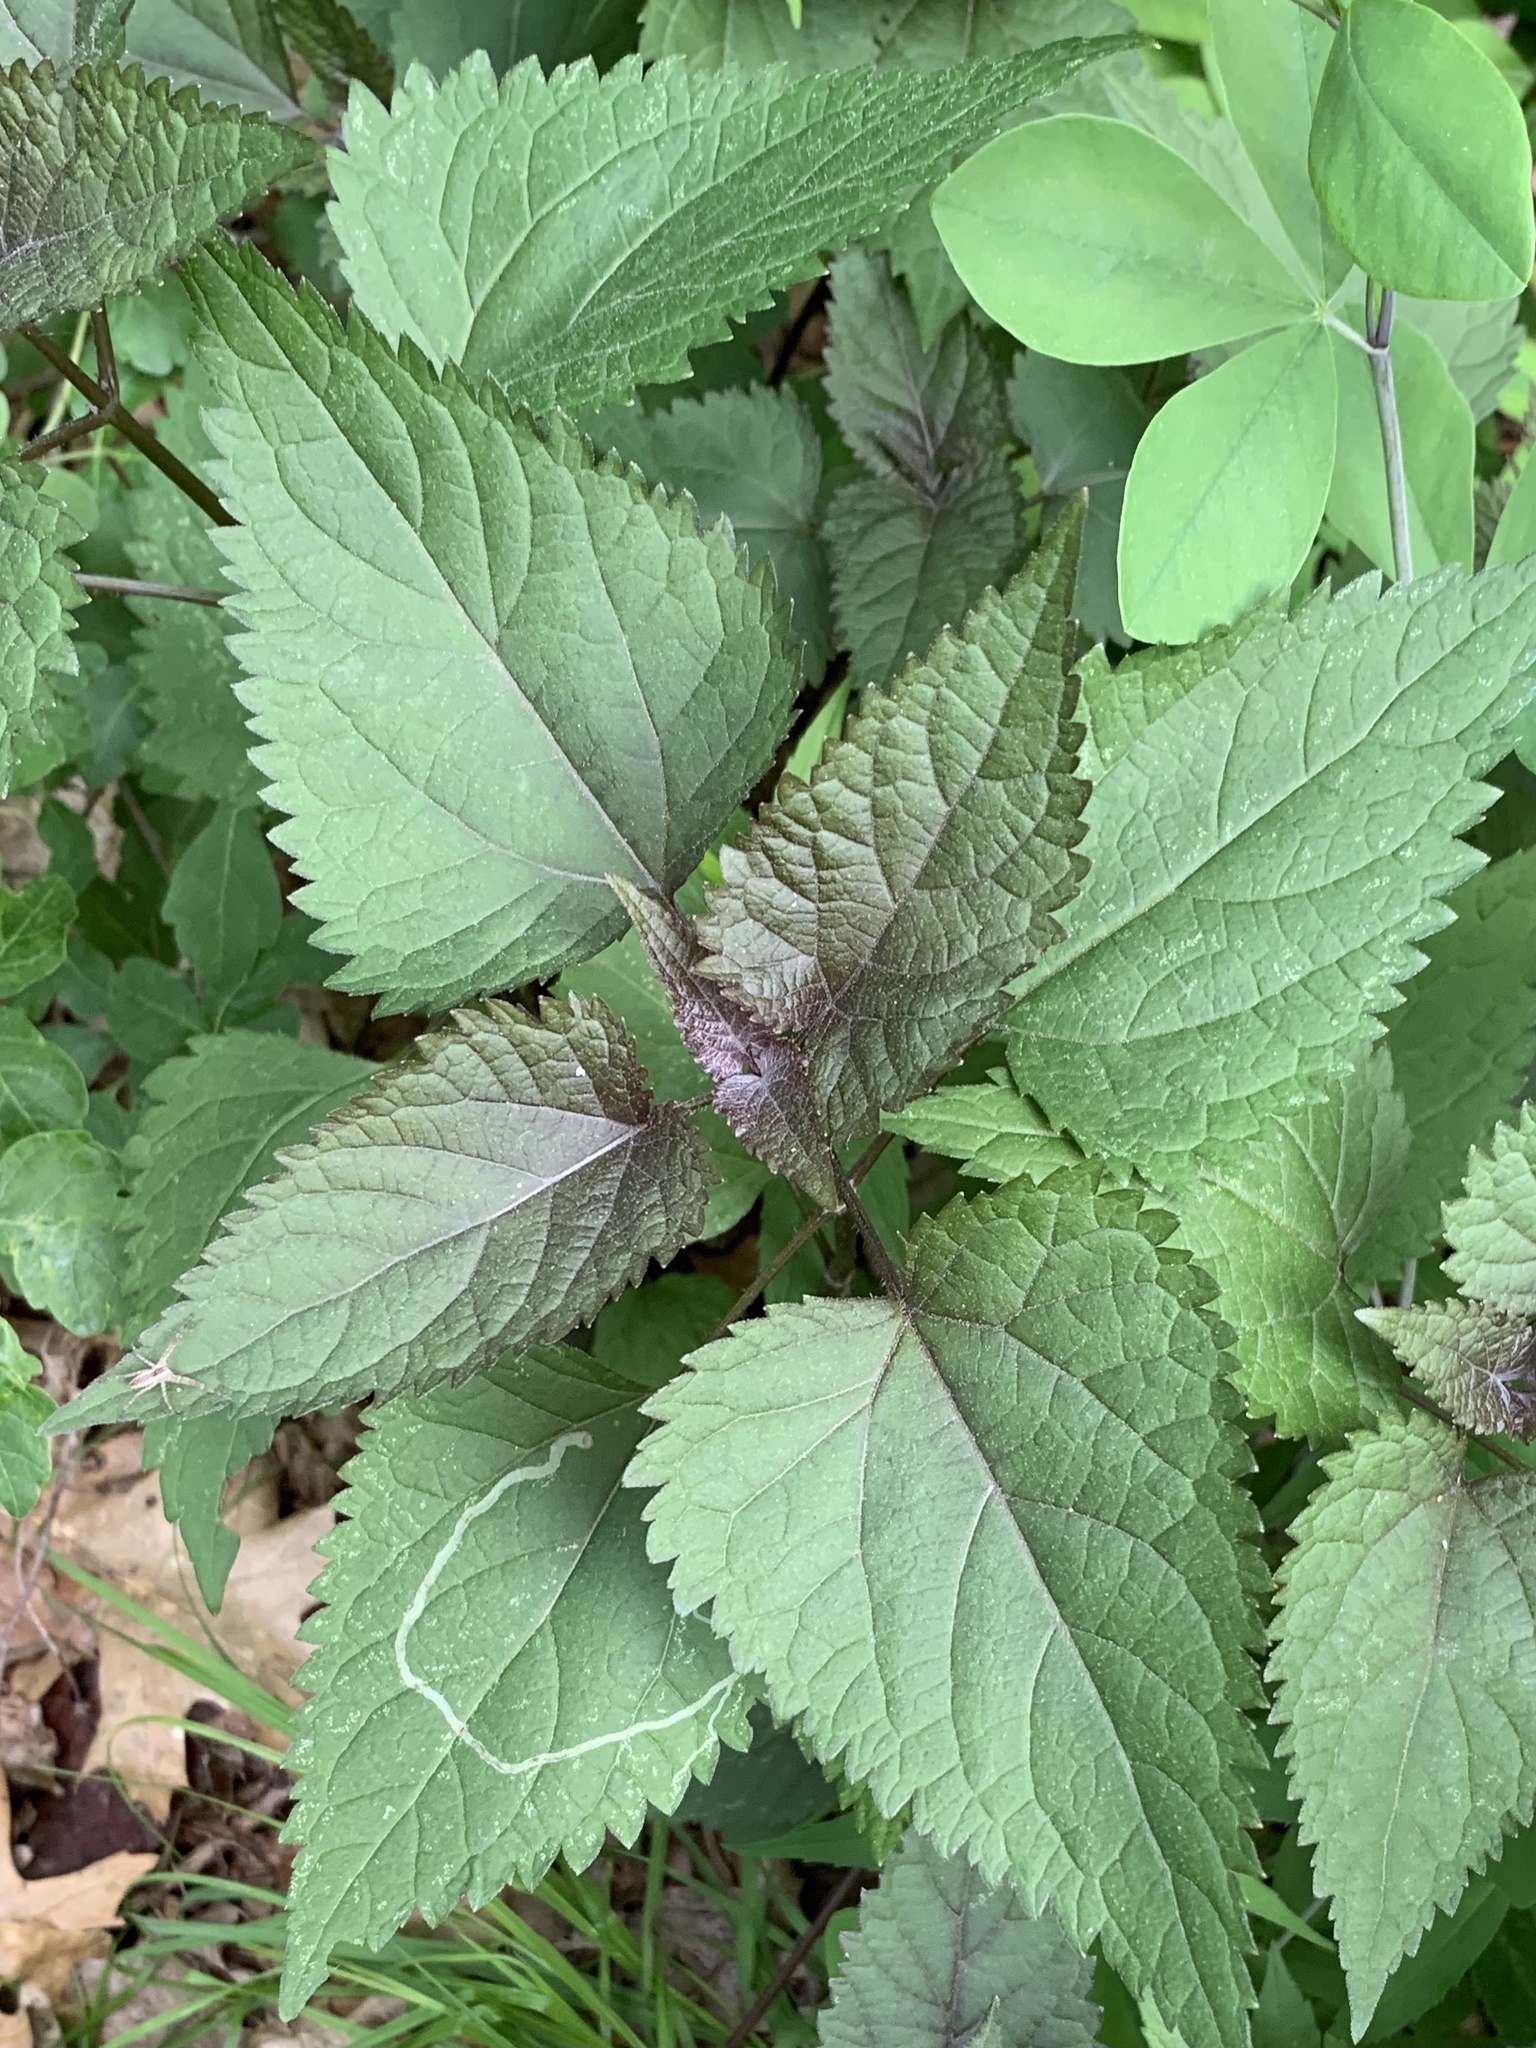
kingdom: Plantae
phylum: Tracheophyta
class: Magnoliopsida
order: Asterales
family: Asteraceae
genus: Ageratina
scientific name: Ageratina altissima
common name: White snakeroot
